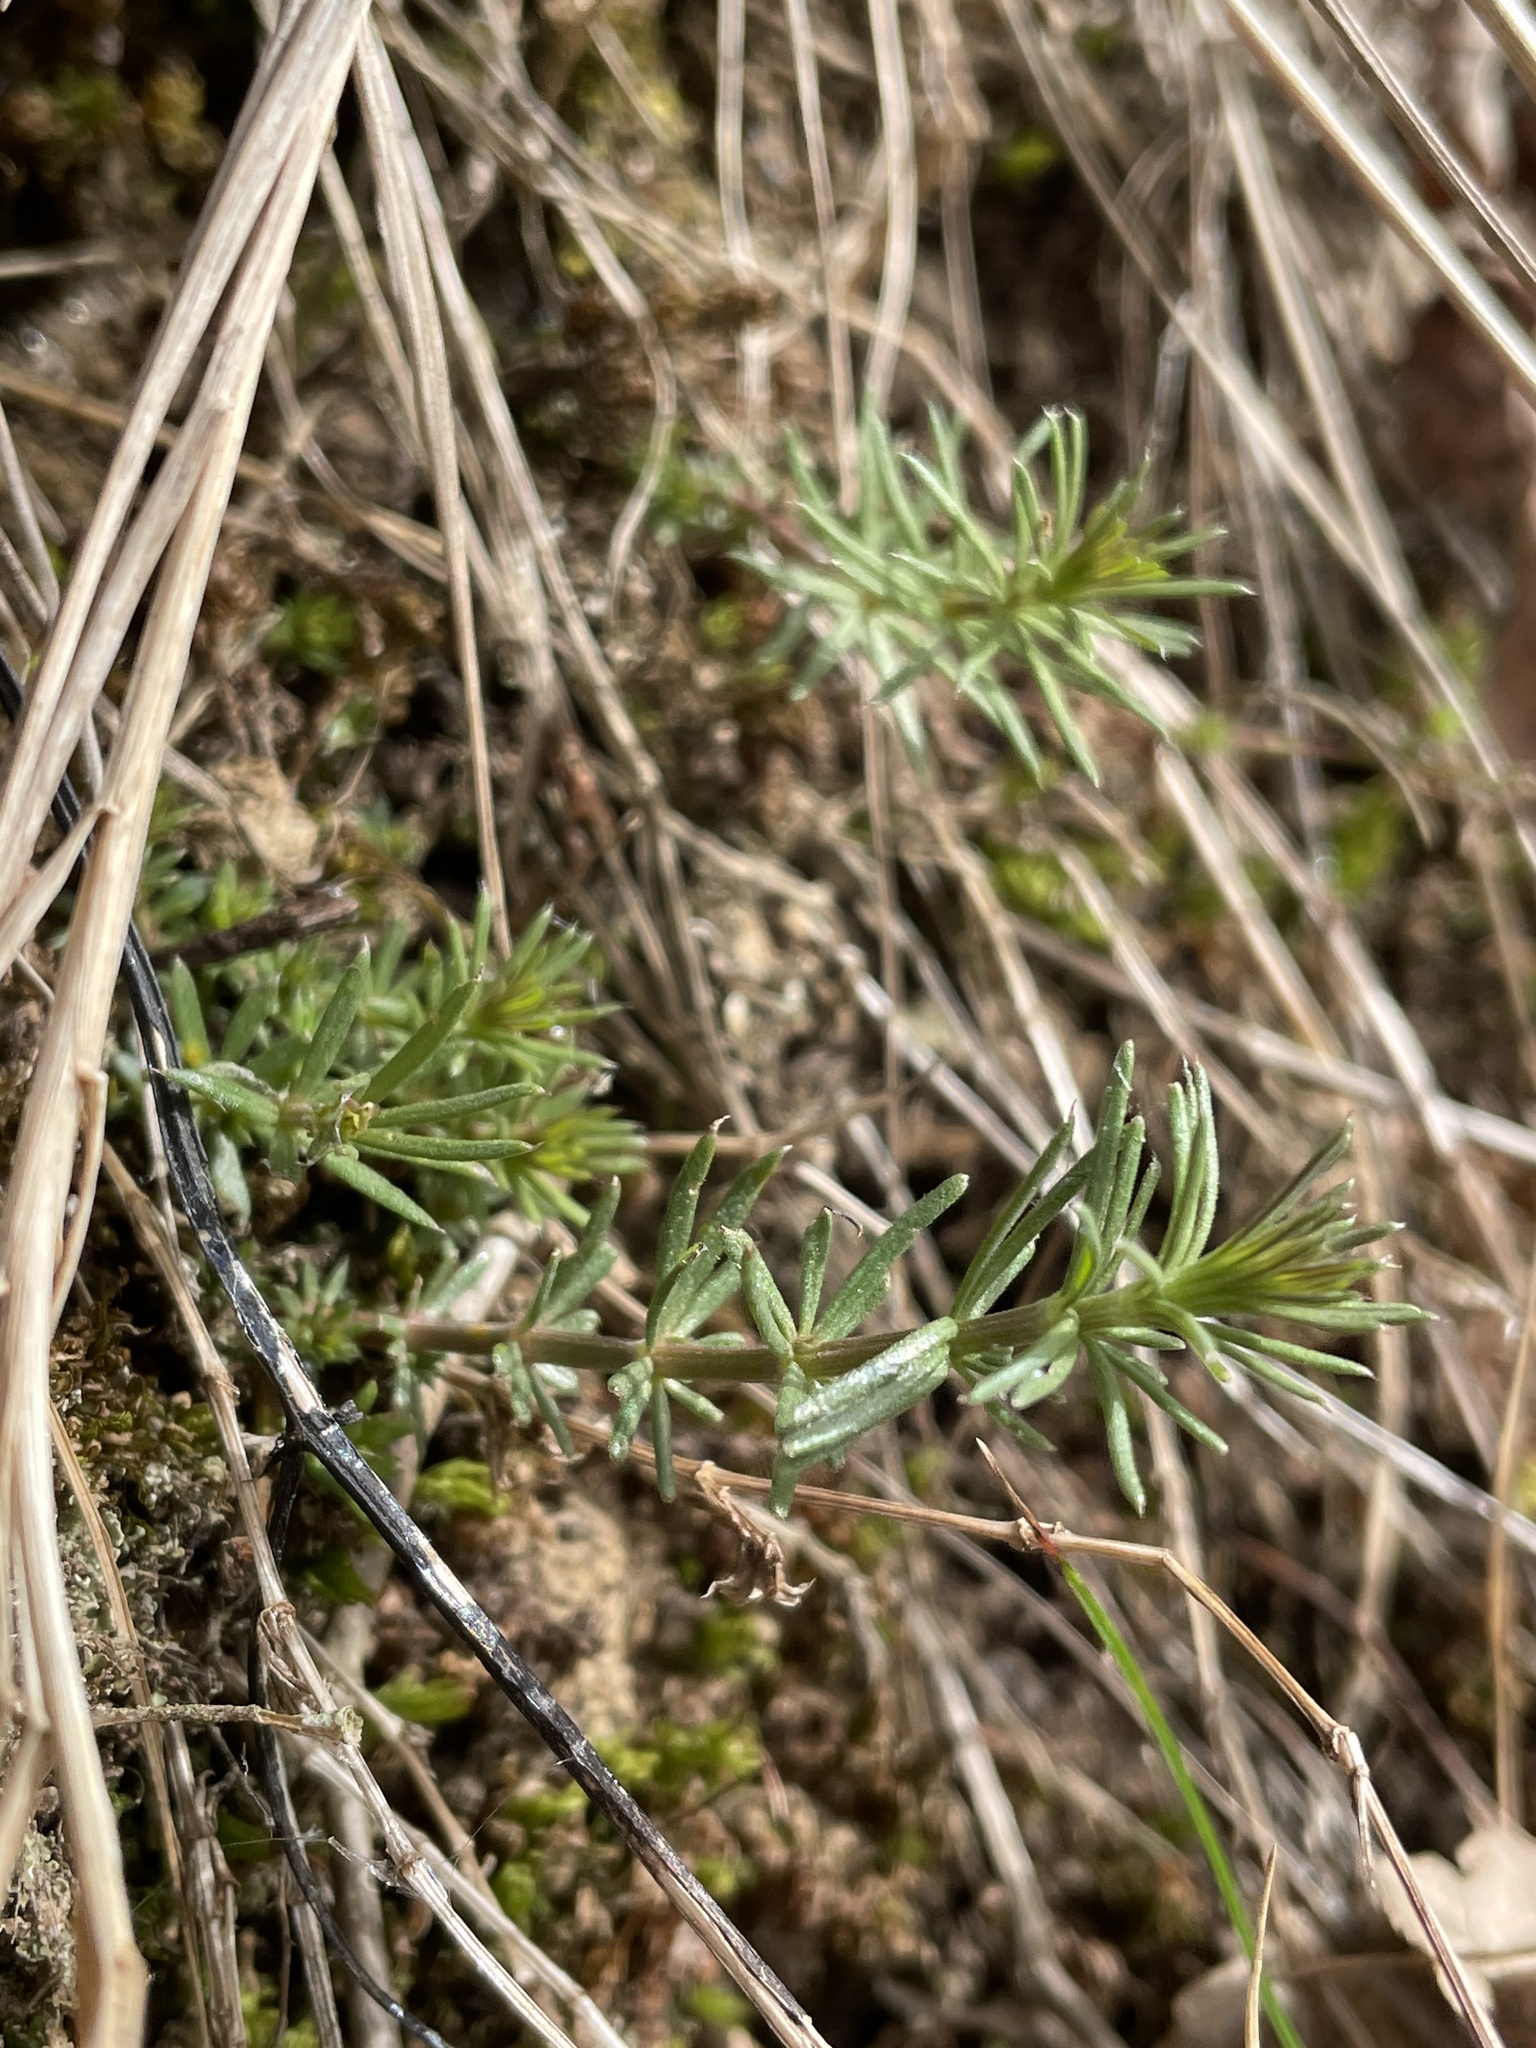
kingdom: Plantae
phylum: Tracheophyta
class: Magnoliopsida
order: Gentianales
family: Rubiaceae
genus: Galium
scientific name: Galium verum
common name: Lady's bedstraw
